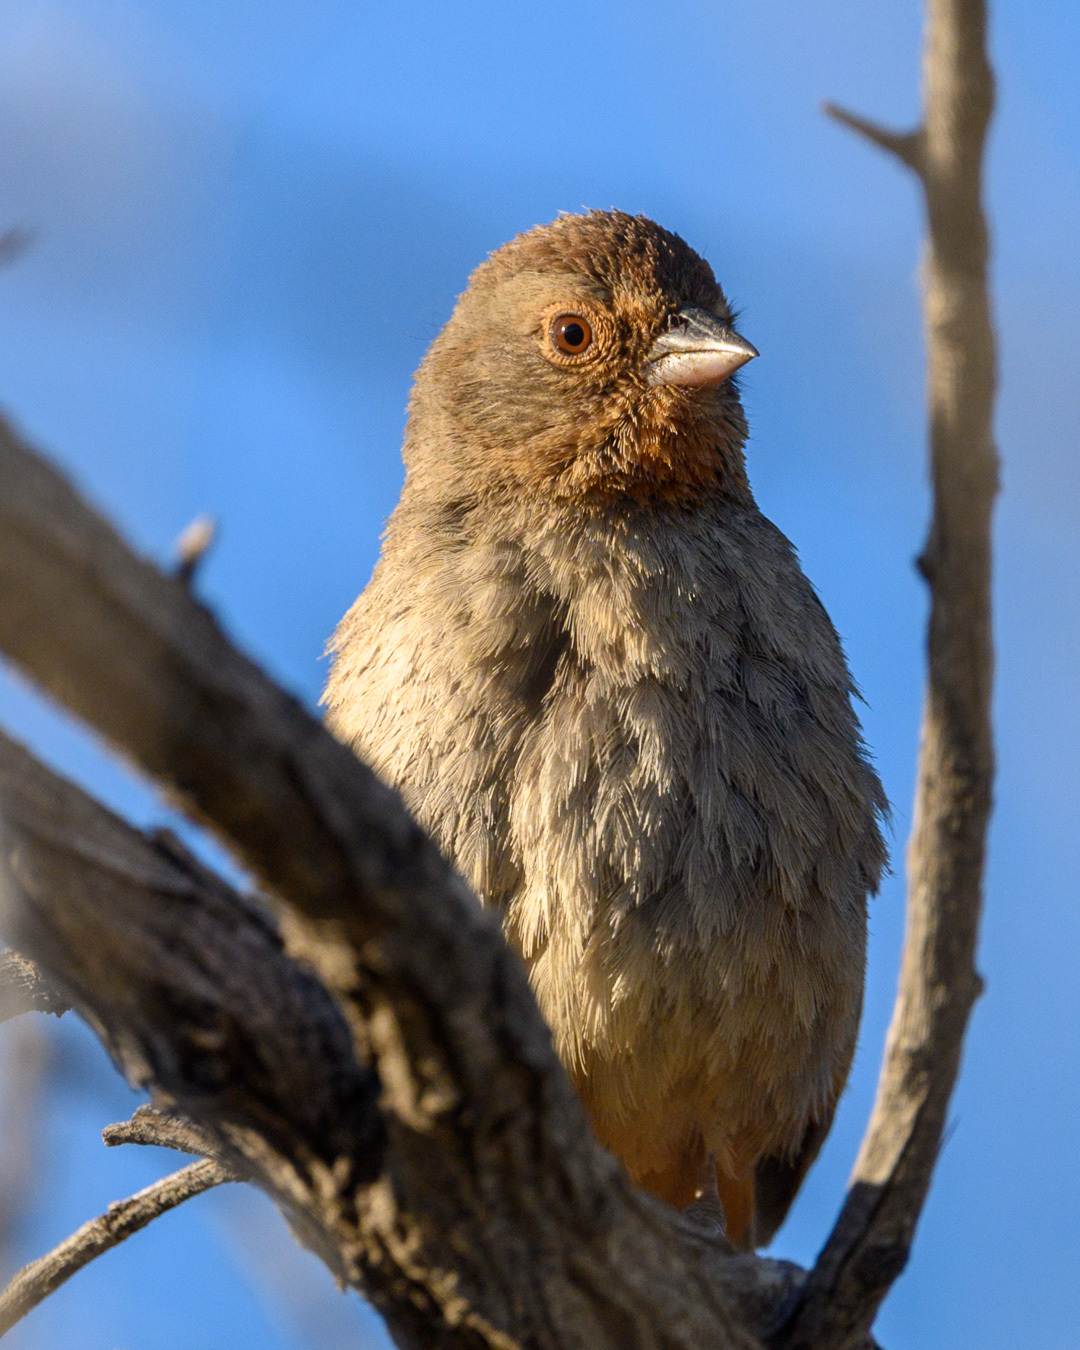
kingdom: Animalia
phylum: Chordata
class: Aves
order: Passeriformes
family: Passerellidae
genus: Melozone
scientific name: Melozone crissalis
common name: California towhee
